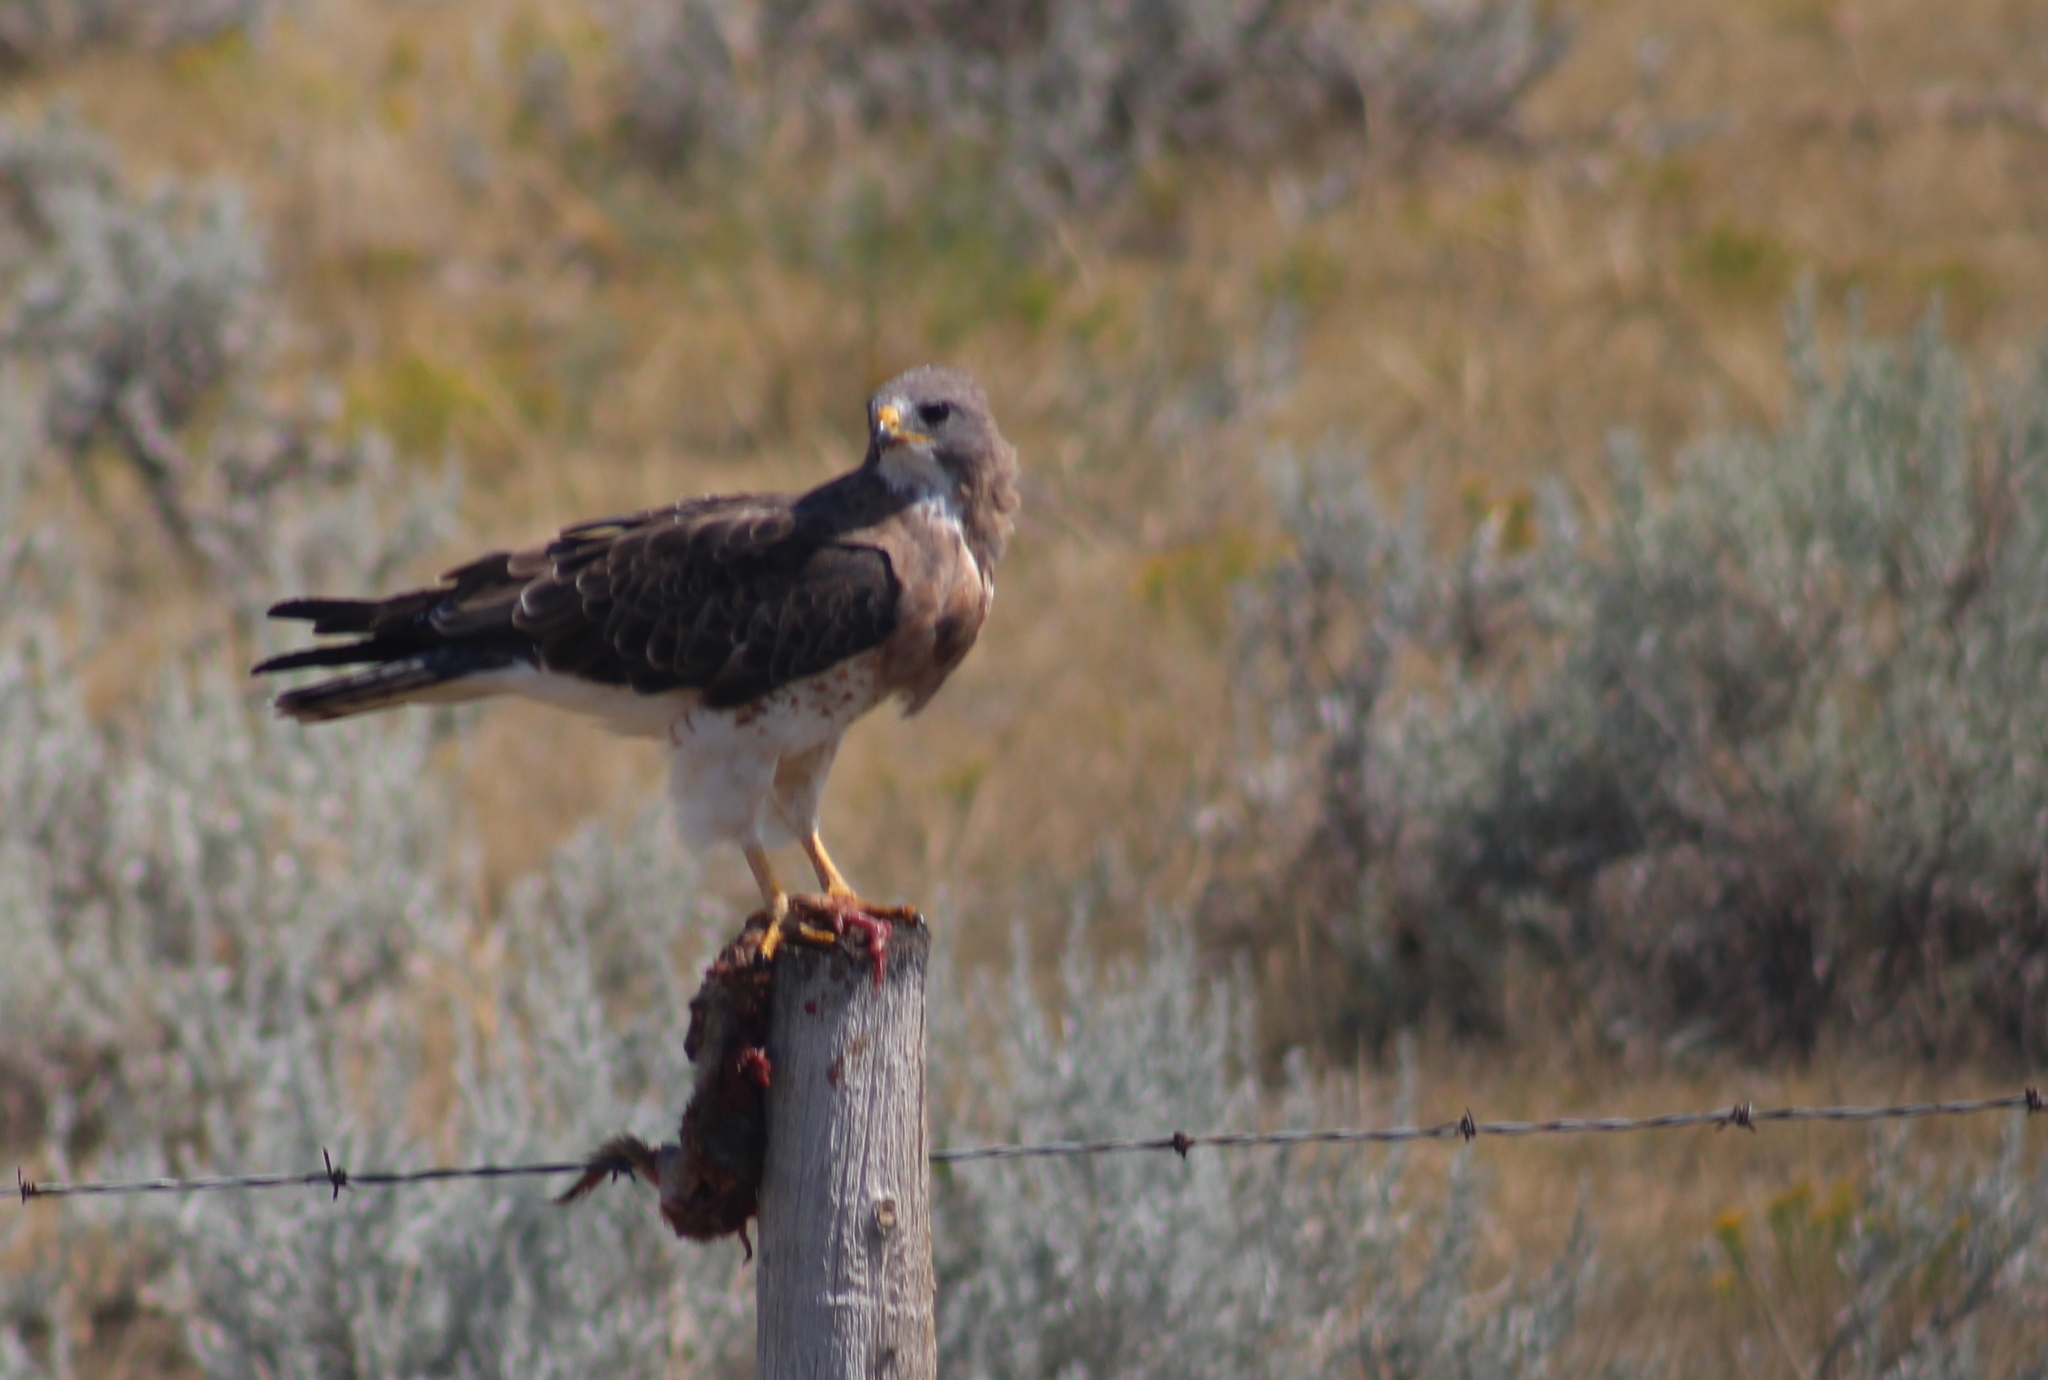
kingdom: Animalia
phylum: Chordata
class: Aves
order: Accipitriformes
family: Accipitridae
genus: Buteo
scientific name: Buteo swainsoni
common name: Swainson's hawk
